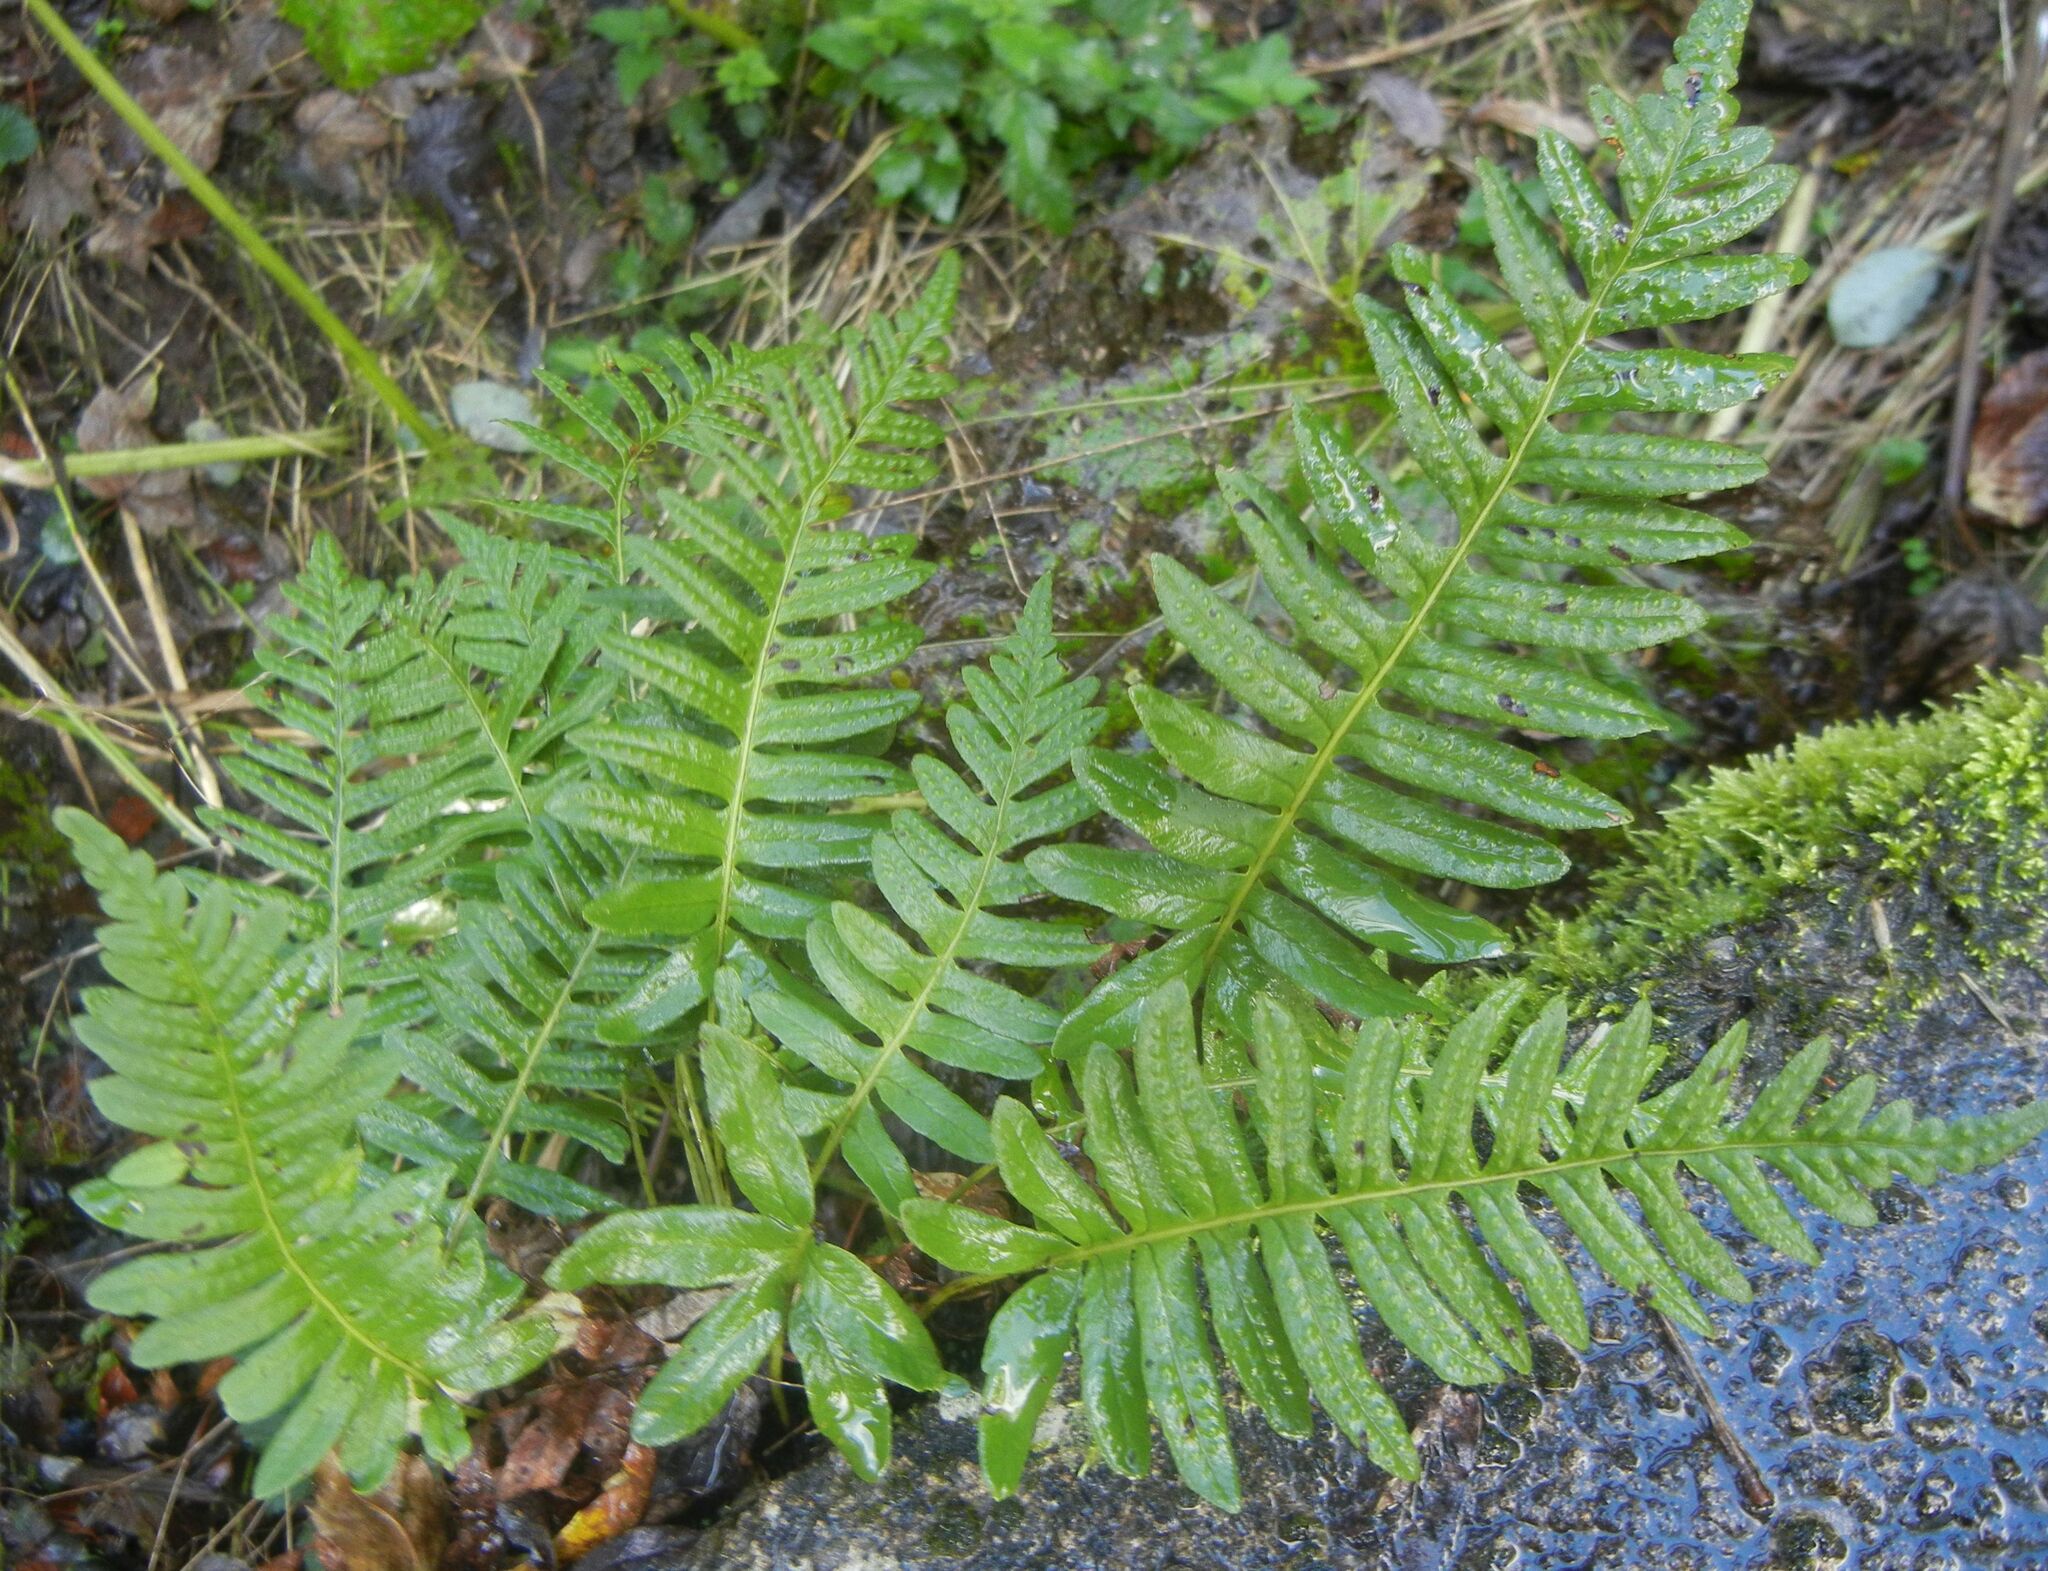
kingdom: Plantae
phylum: Tracheophyta
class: Polypodiopsida
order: Polypodiales
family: Polypodiaceae
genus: Polypodium
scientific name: Polypodium
